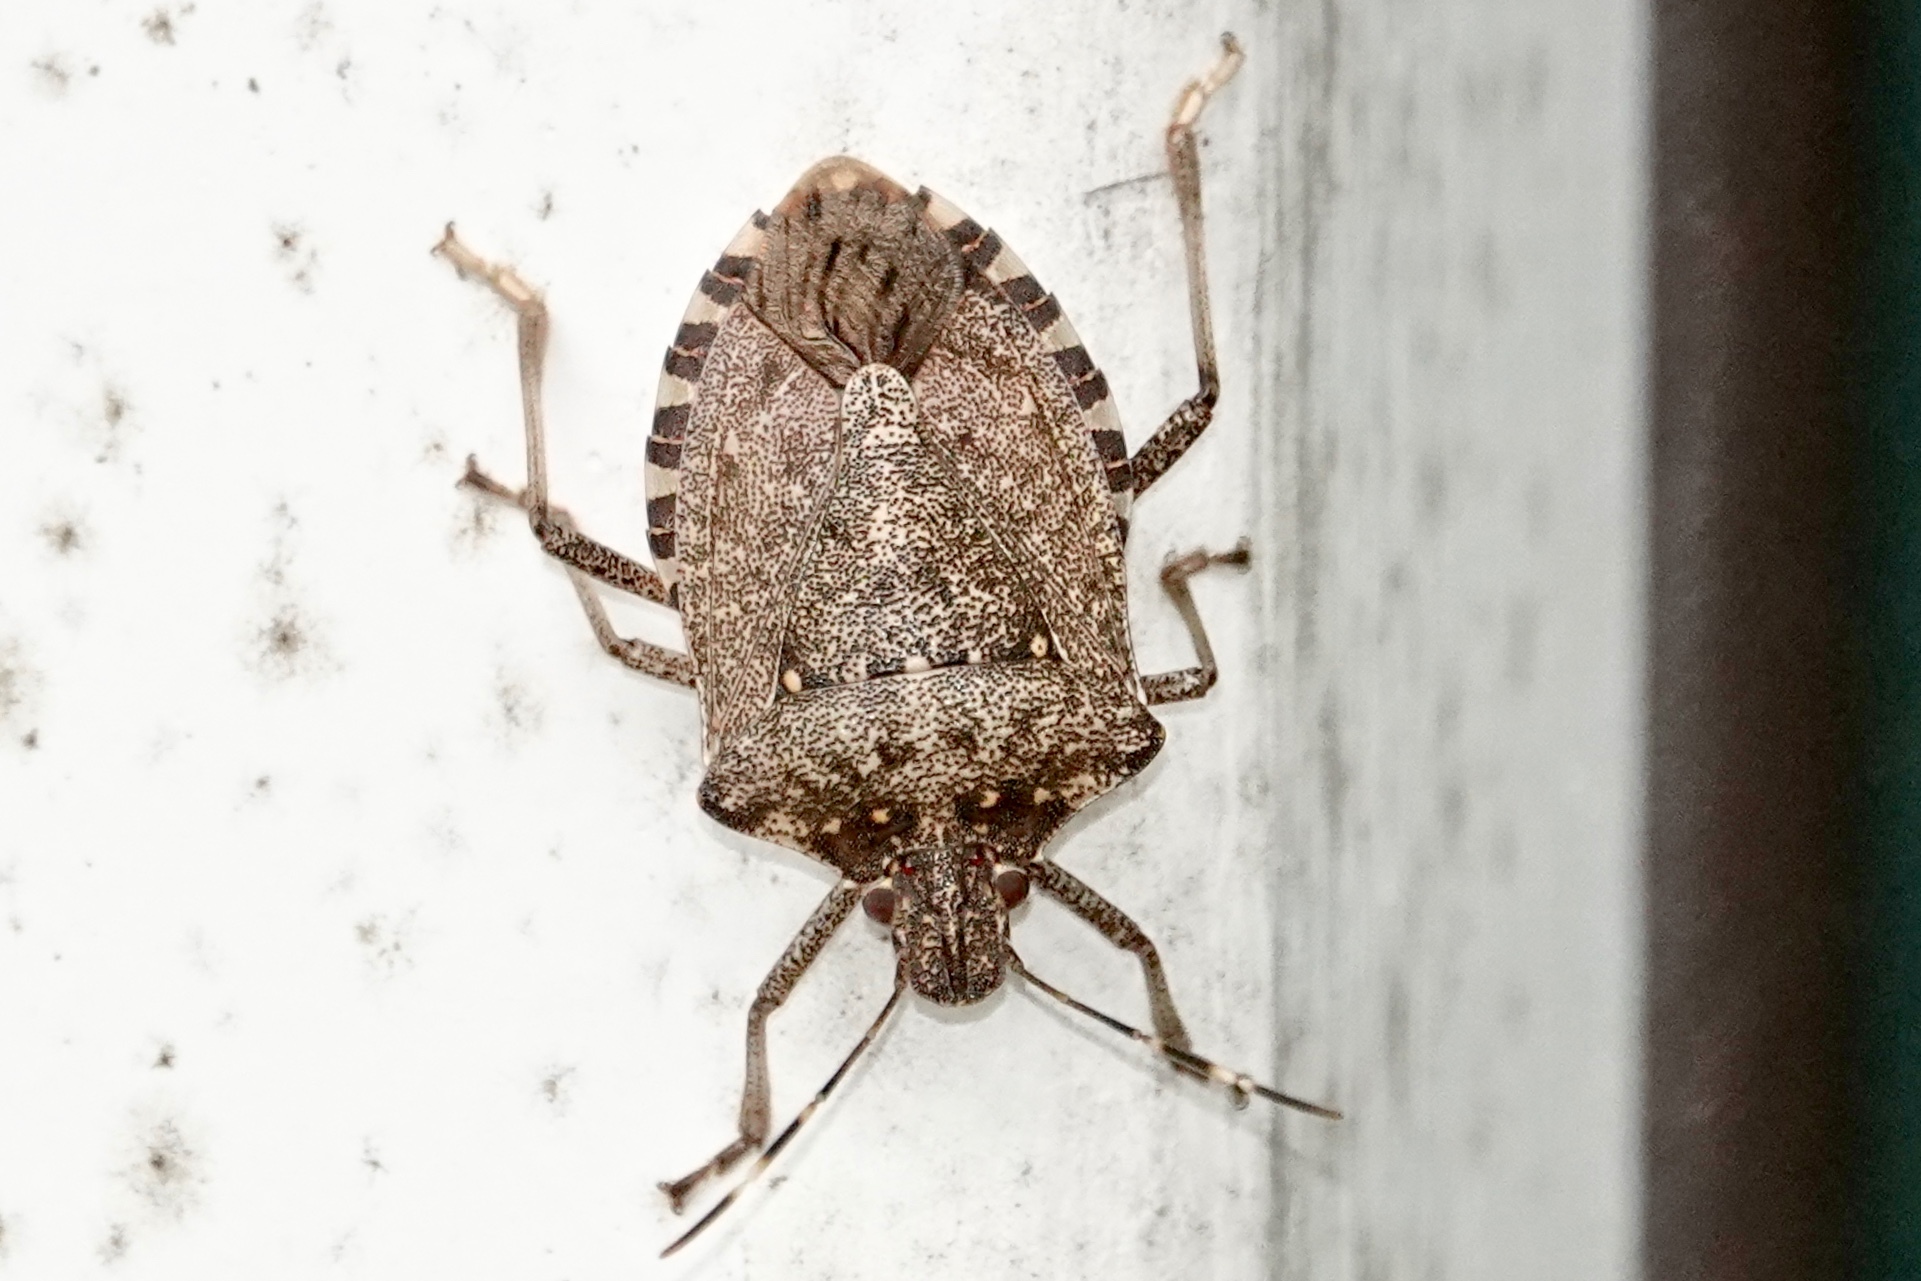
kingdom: Animalia
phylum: Arthropoda
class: Insecta
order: Hemiptera
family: Pentatomidae
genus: Halyomorpha
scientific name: Halyomorpha halys
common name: Brown marmorated stink bug
